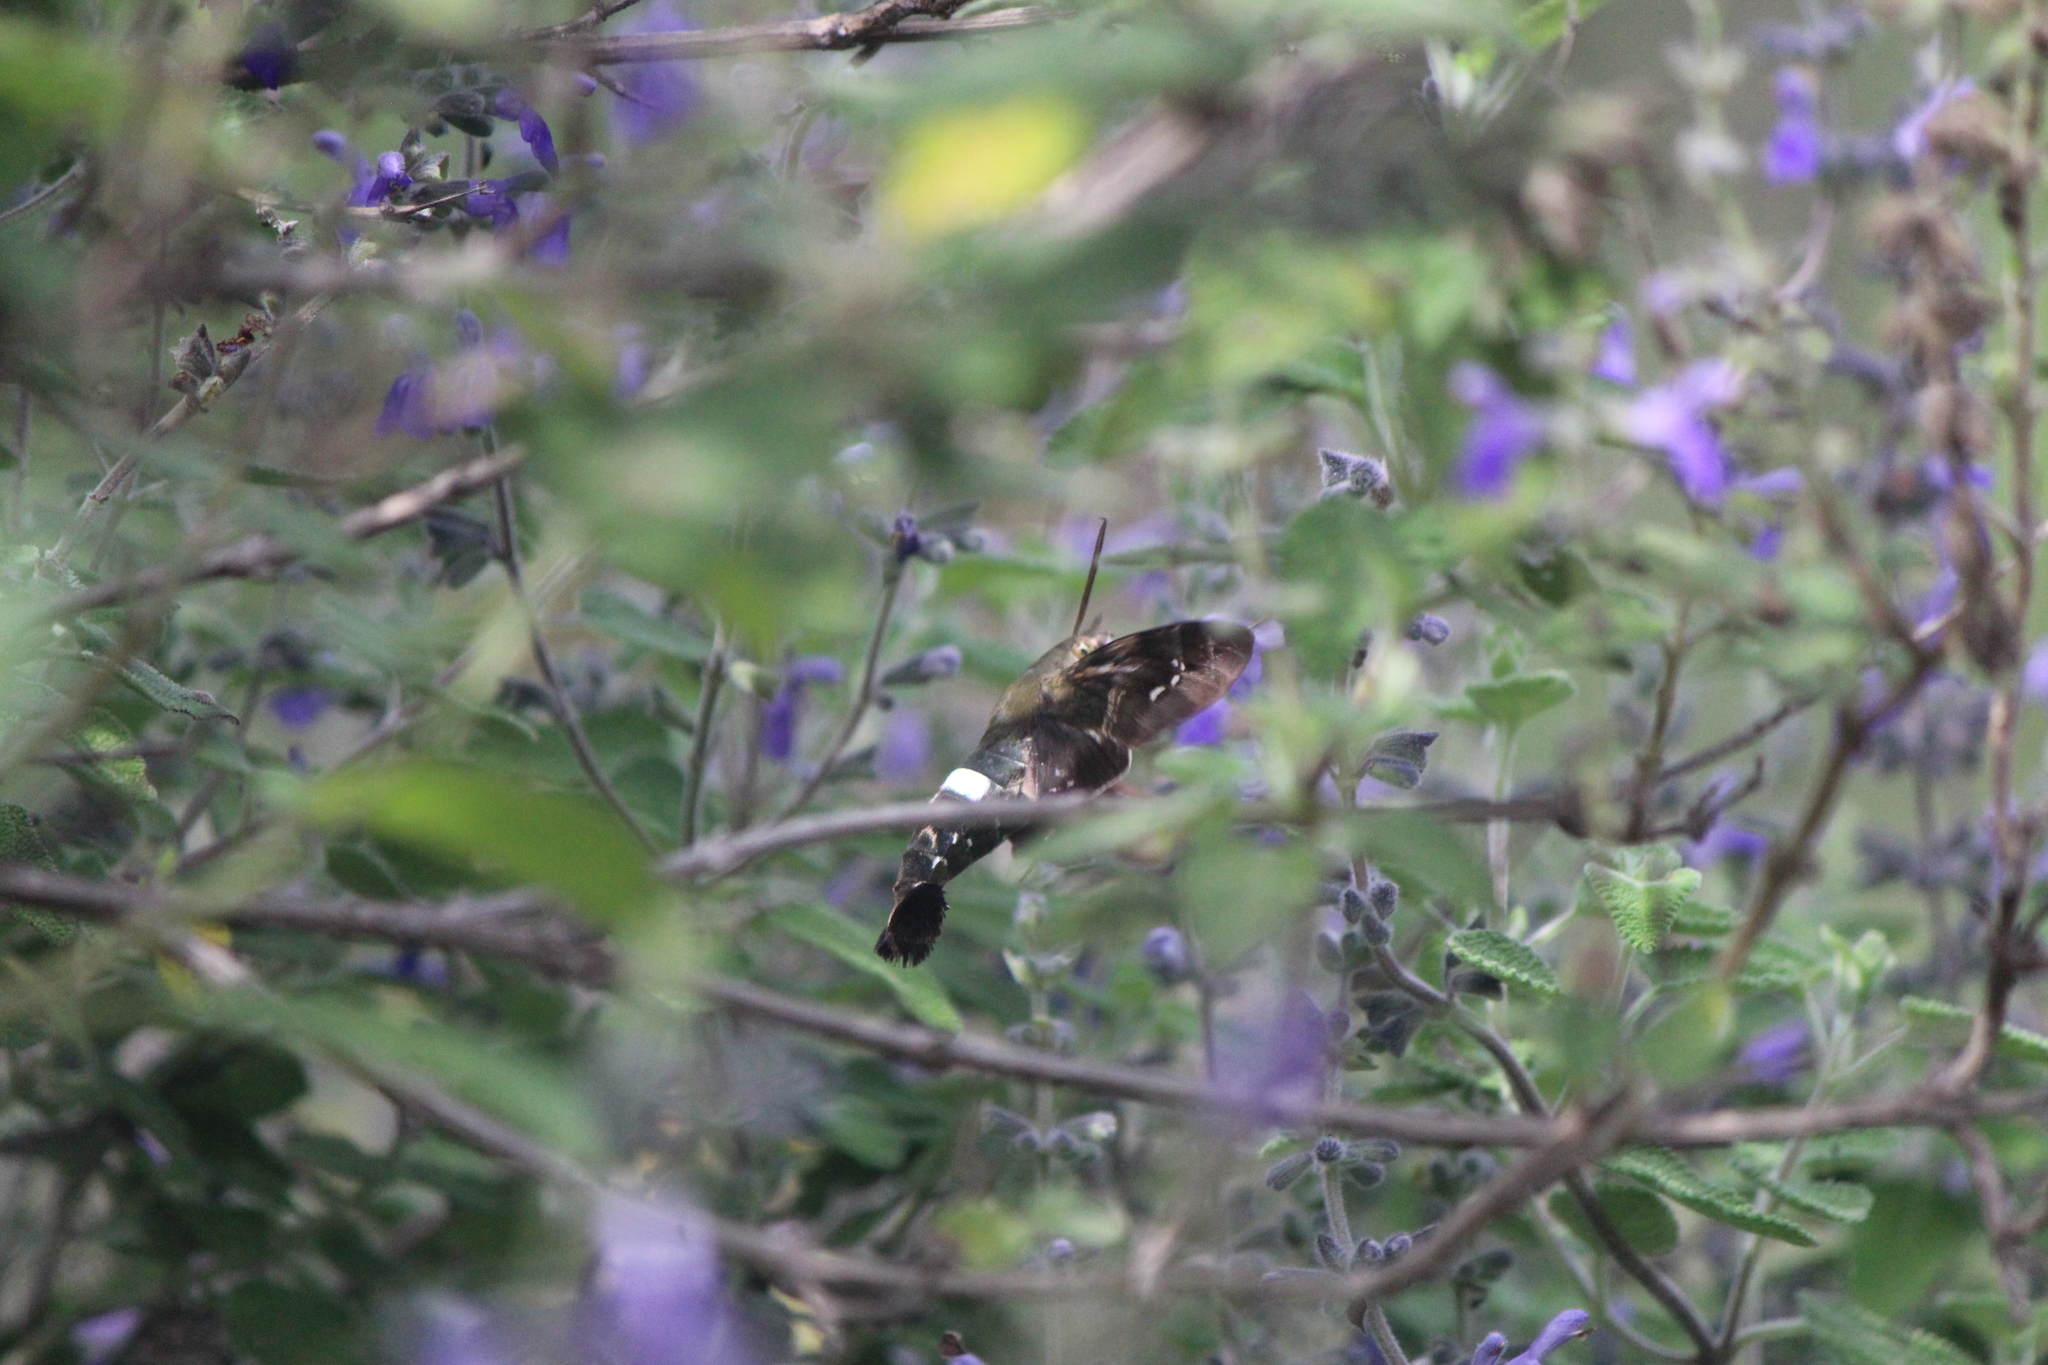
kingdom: Animalia
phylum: Arthropoda
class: Insecta
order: Lepidoptera
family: Sphingidae
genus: Aellopos
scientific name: Aellopos clavipes
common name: Clavipes sphinx
